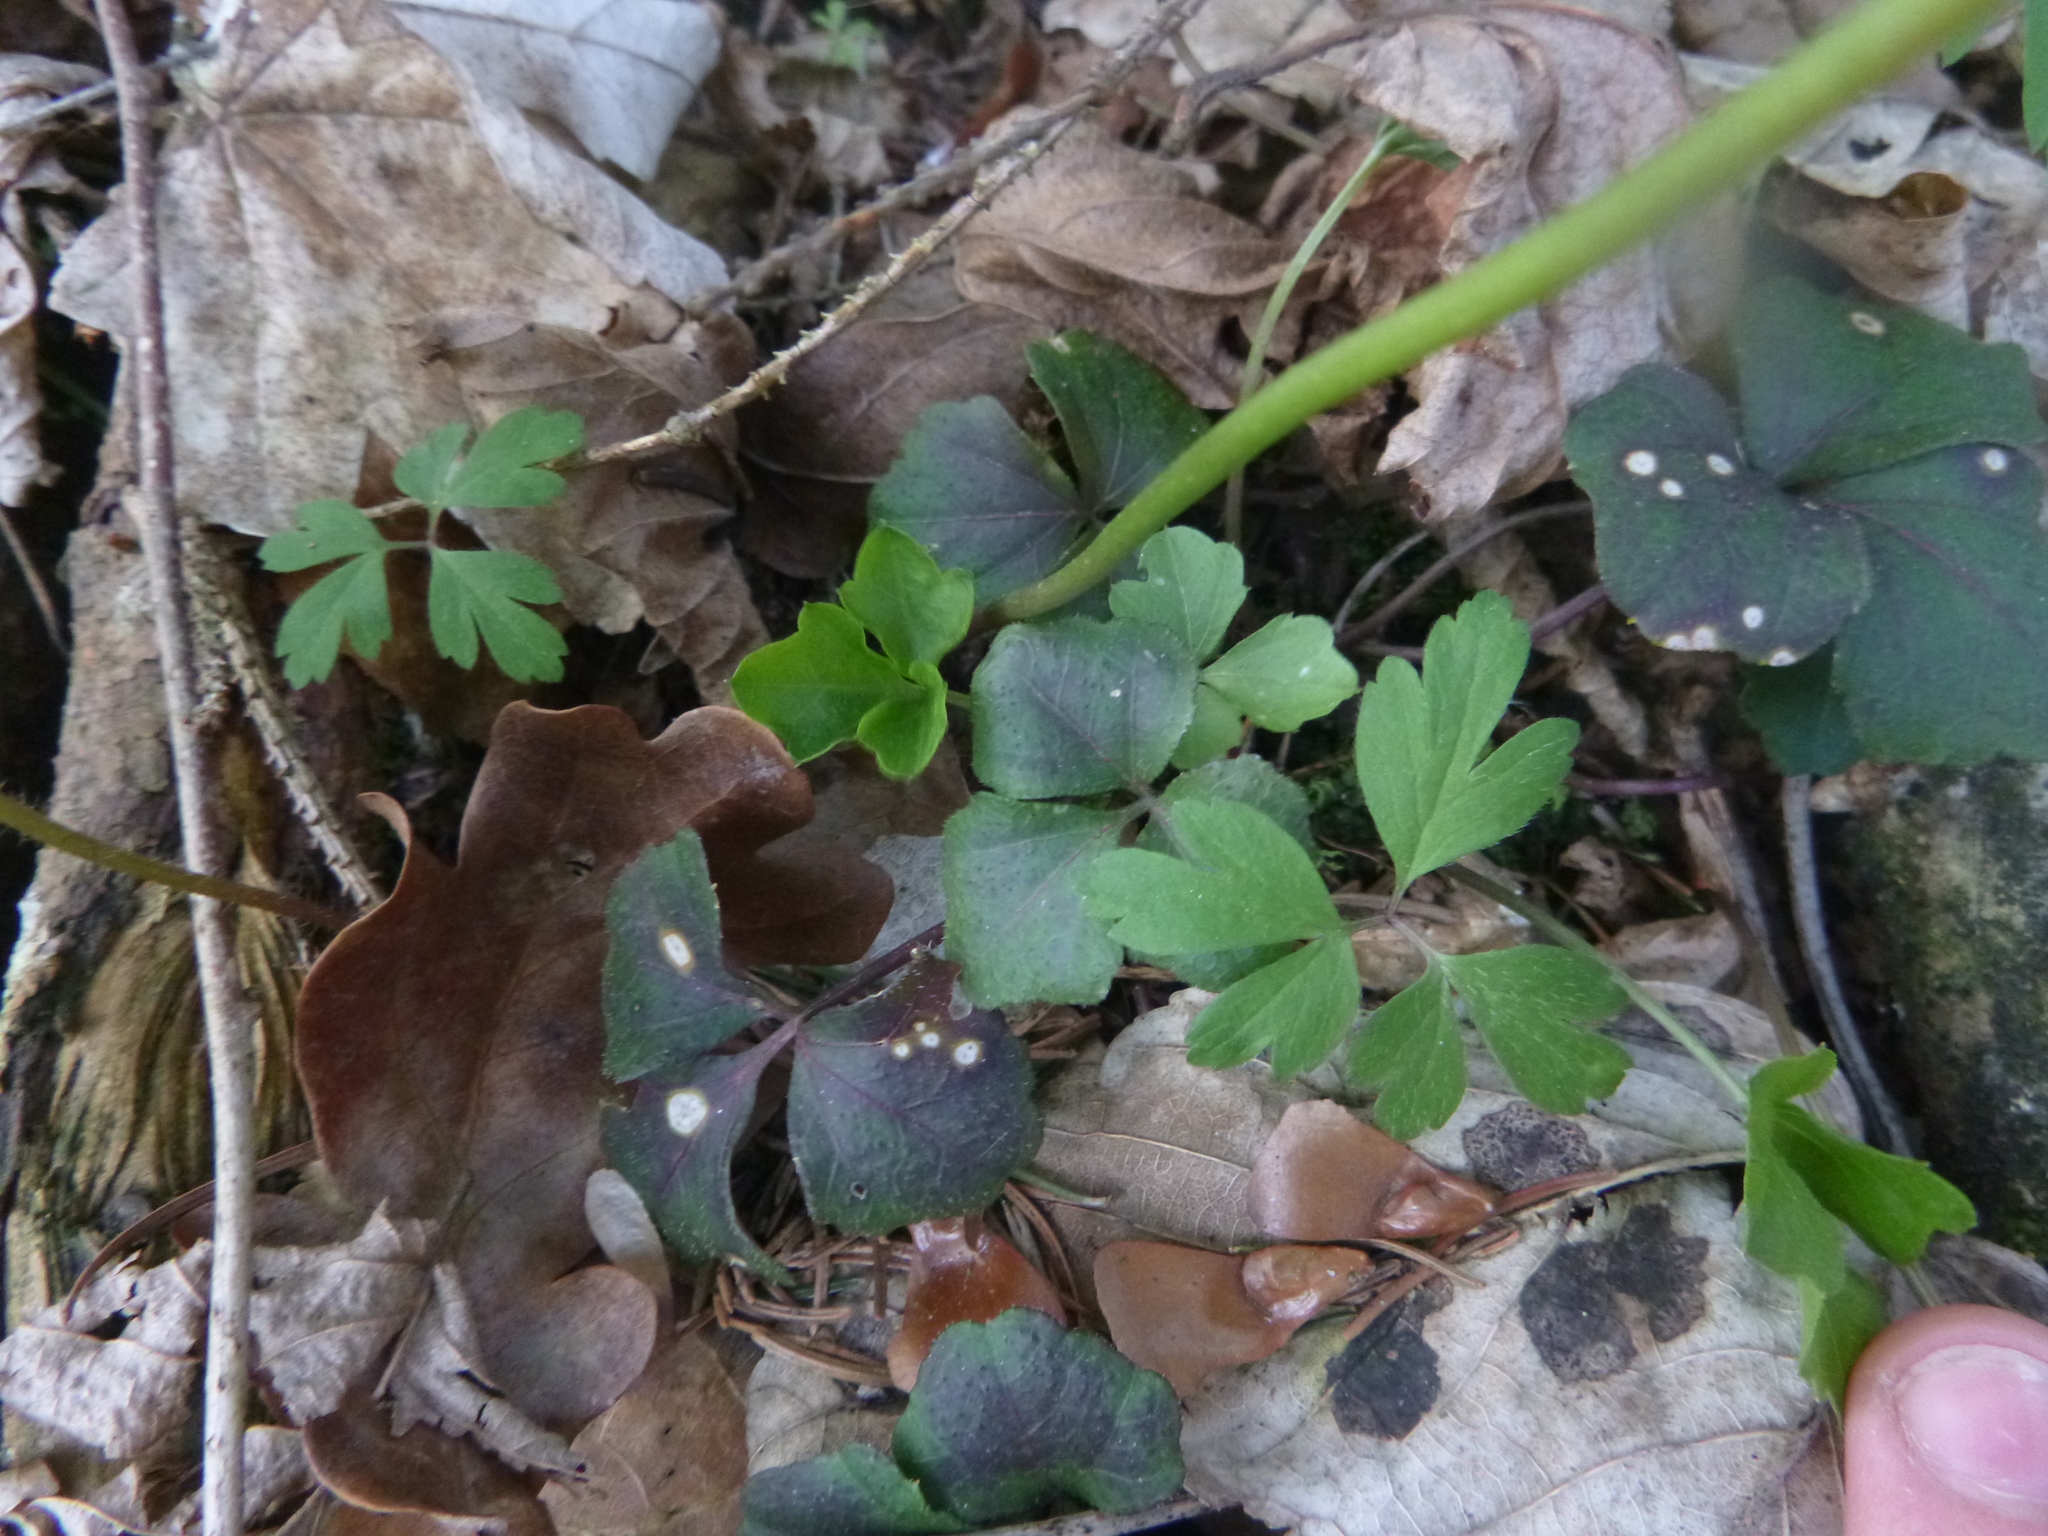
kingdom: Plantae
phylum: Tracheophyta
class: Magnoliopsida
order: Brassicales
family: Brassicaceae
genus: Cardamine
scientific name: Cardamine trifolia
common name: Trefoil cress
